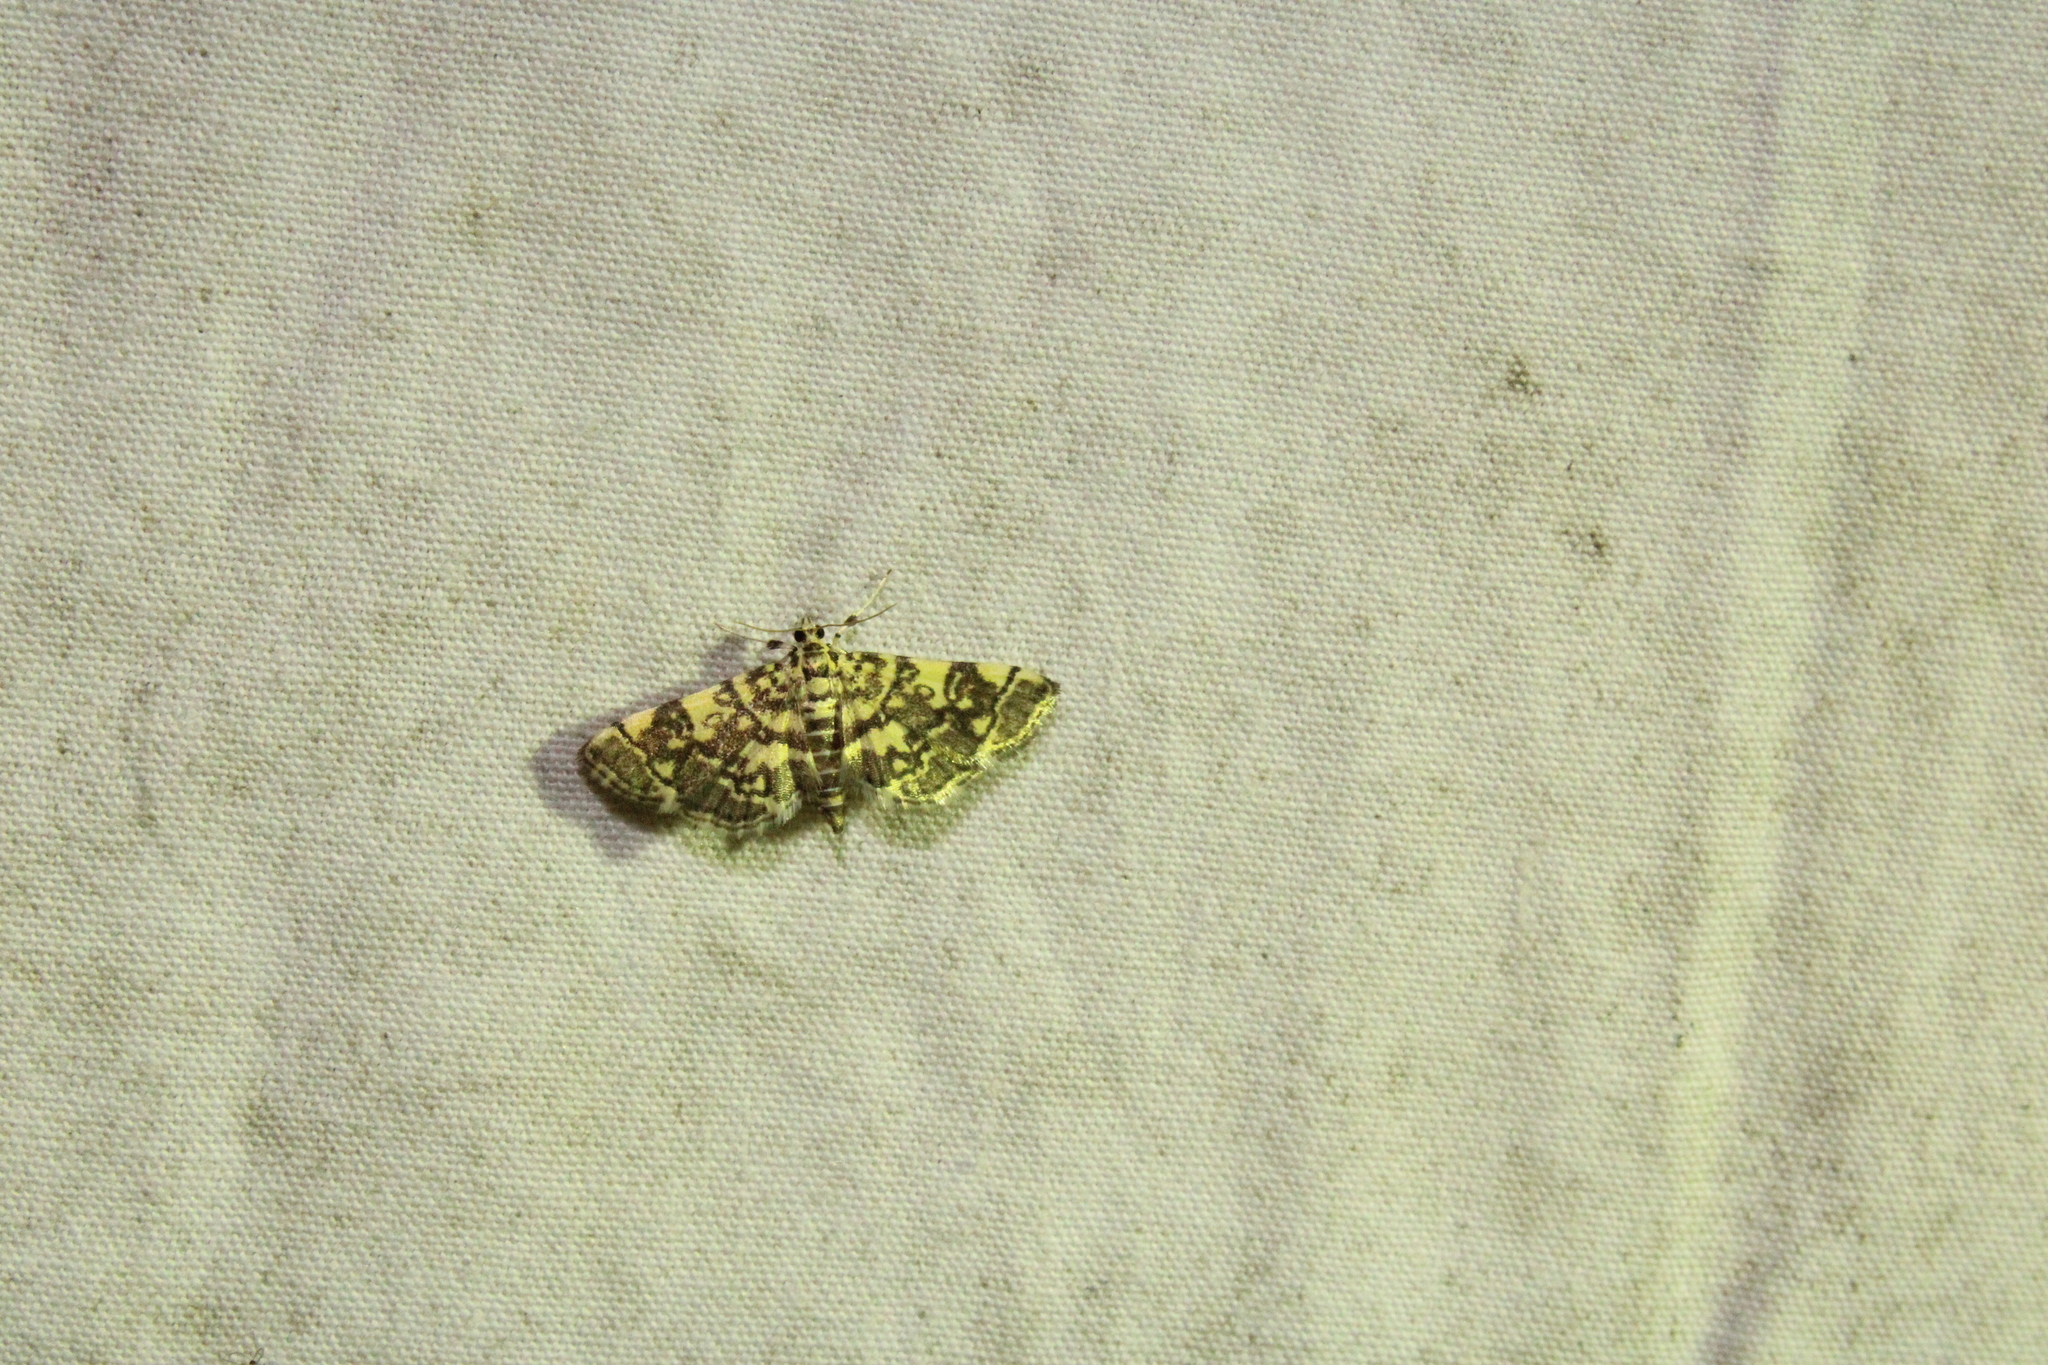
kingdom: Animalia
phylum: Arthropoda
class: Insecta
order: Lepidoptera
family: Crambidae
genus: Apogeshna
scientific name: Apogeshna stenialis
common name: Checkered apogeshna moth
